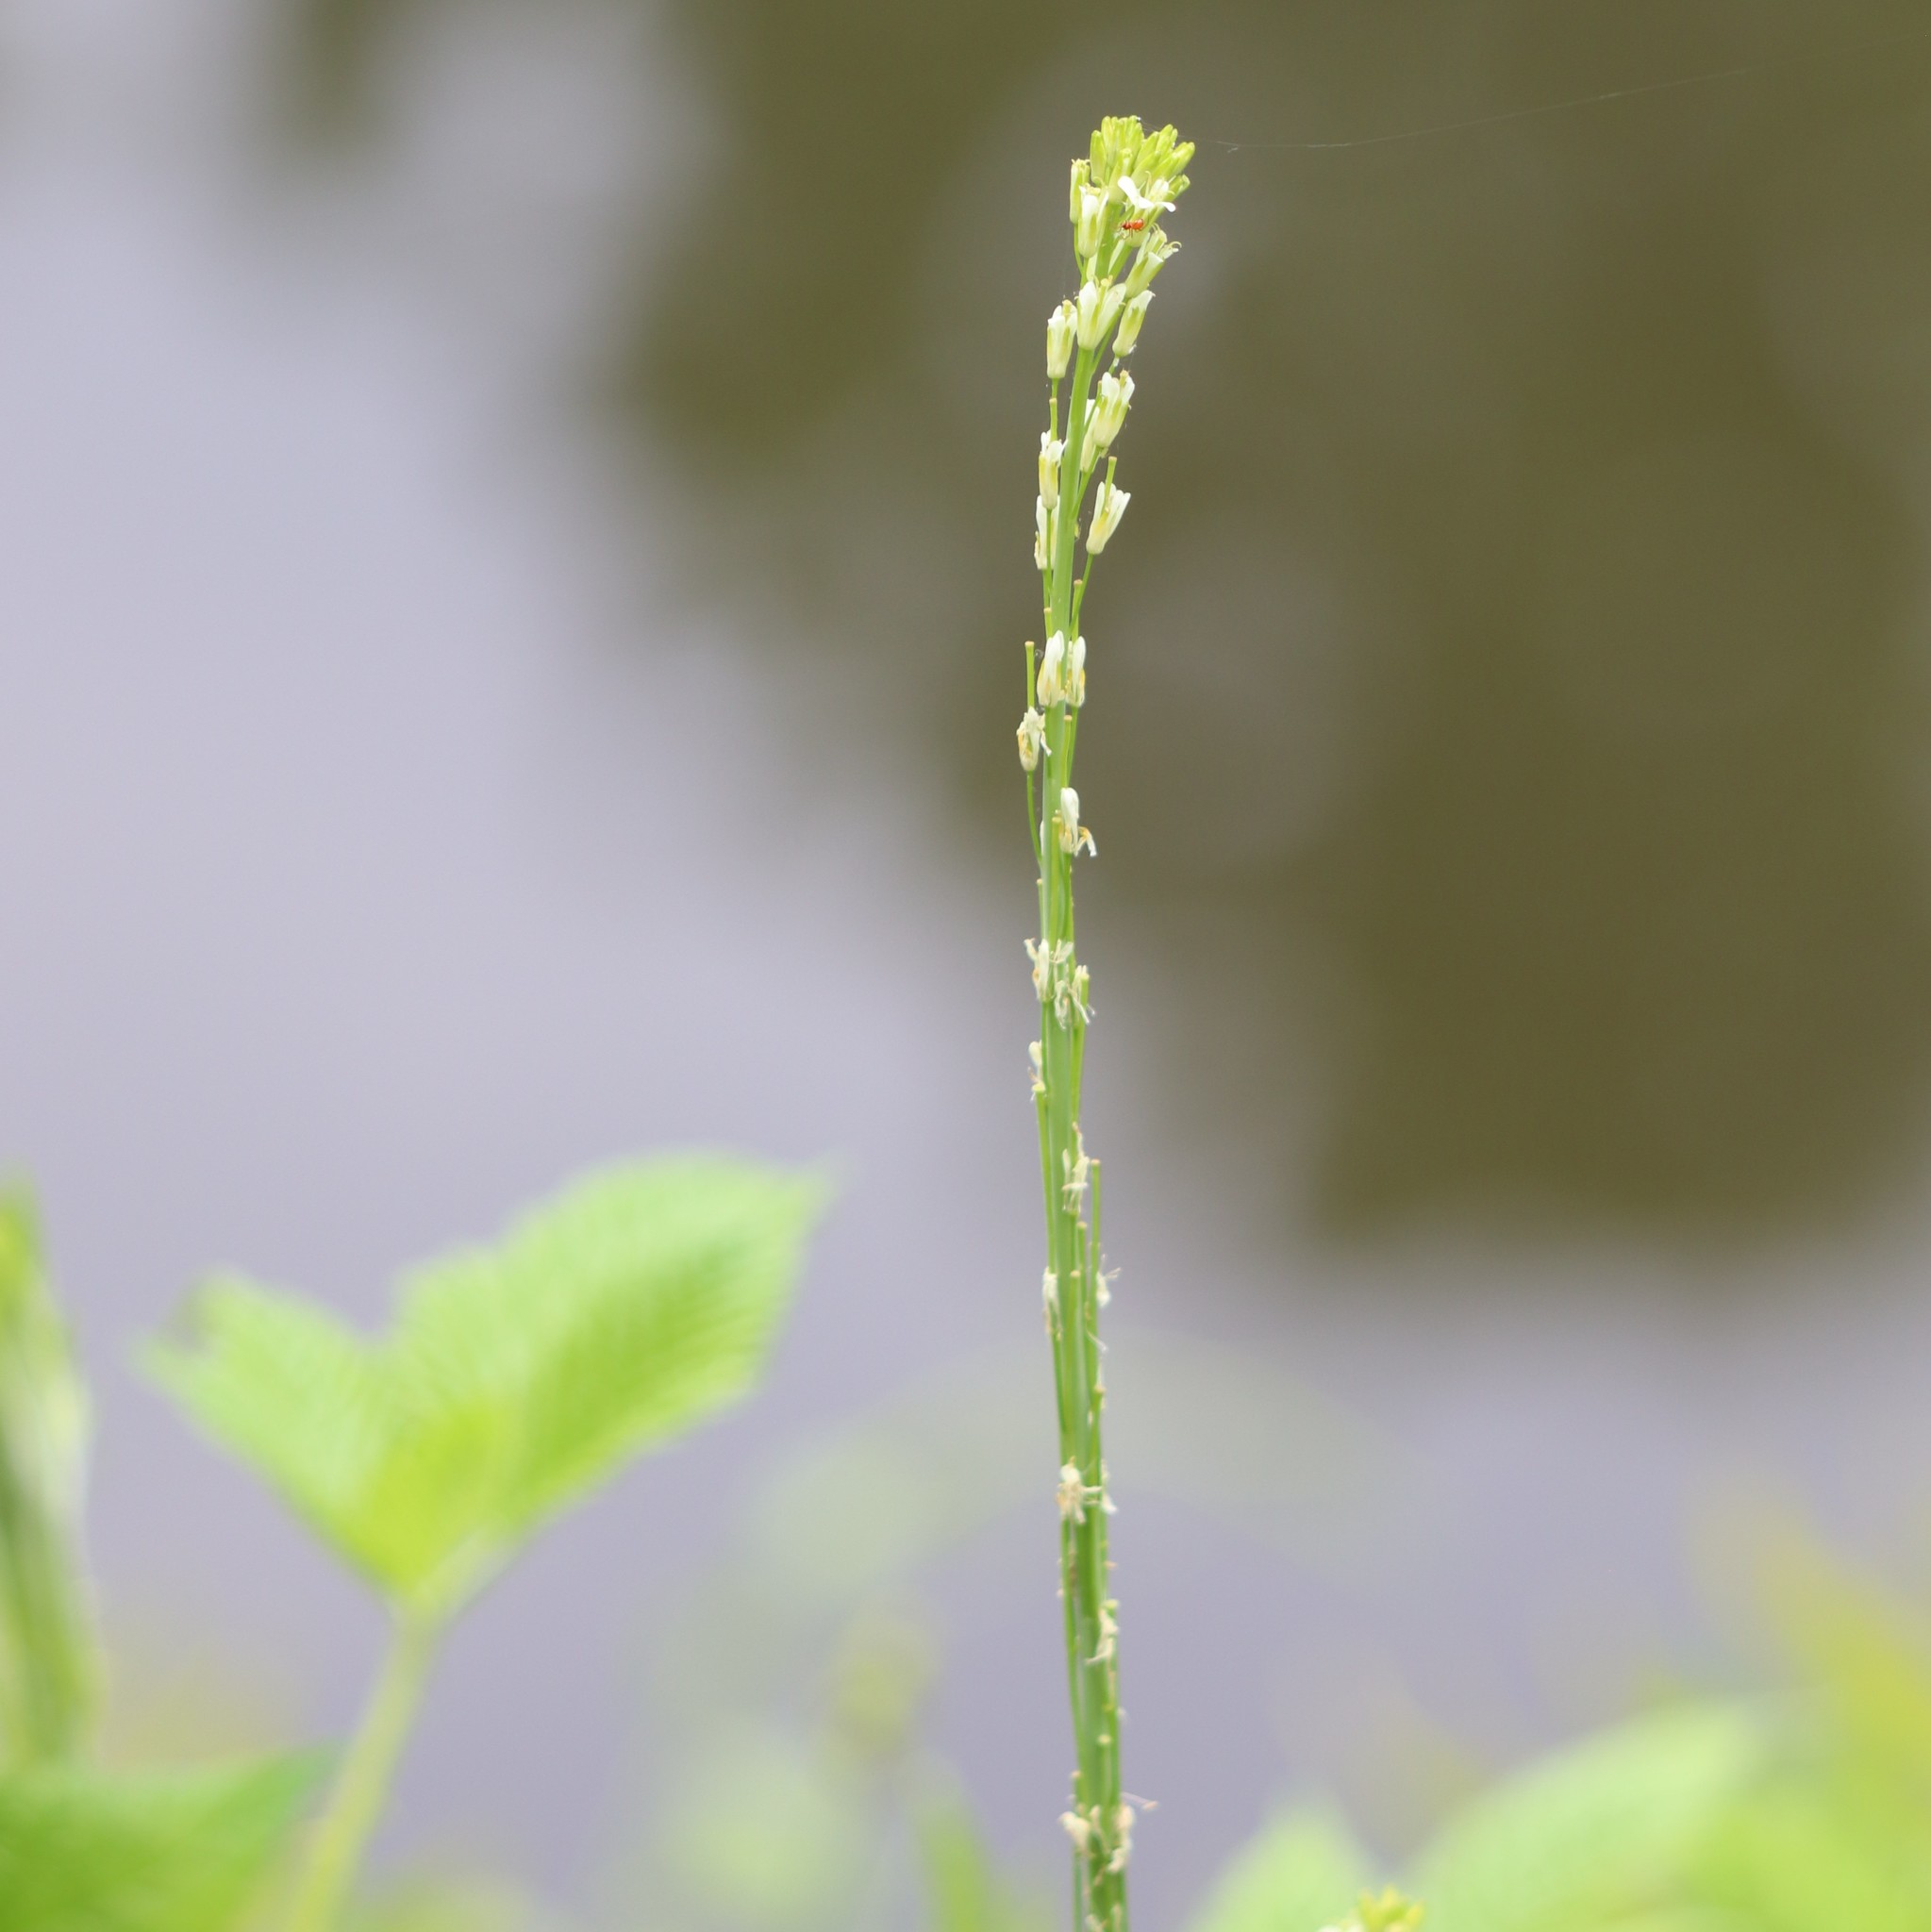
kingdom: Plantae
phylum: Tracheophyta
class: Magnoliopsida
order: Brassicales
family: Brassicaceae
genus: Turritis
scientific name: Turritis glabra
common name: Tower rockcress
